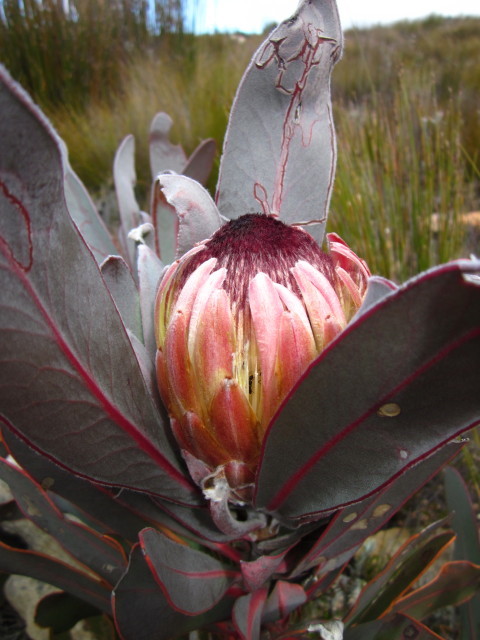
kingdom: Plantae
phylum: Tracheophyta
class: Magnoliopsida
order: Proteales
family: Proteaceae
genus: Protea
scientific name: Protea lorifolia
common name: Strap-leaved protea
